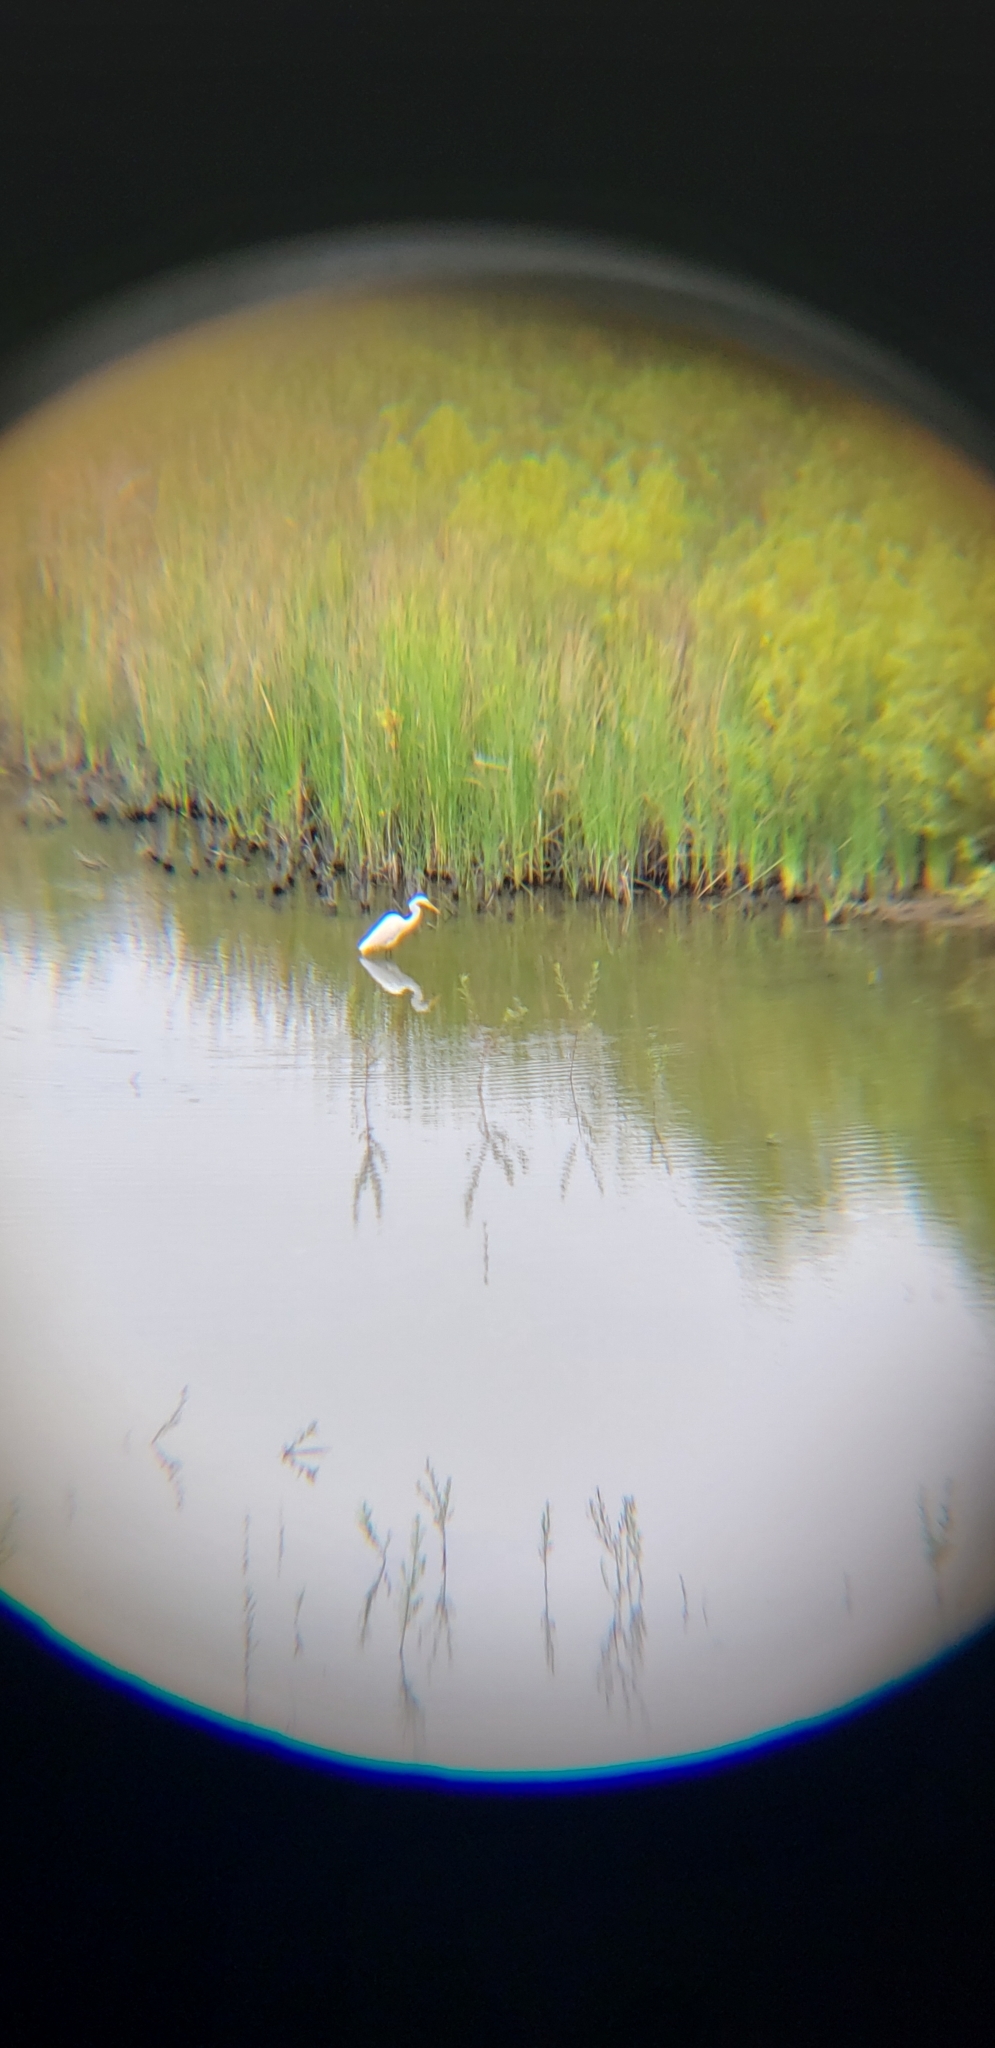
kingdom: Animalia
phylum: Chordata
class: Aves
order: Pelecaniformes
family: Ardeidae
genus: Ardea
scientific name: Ardea alba
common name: Great egret
